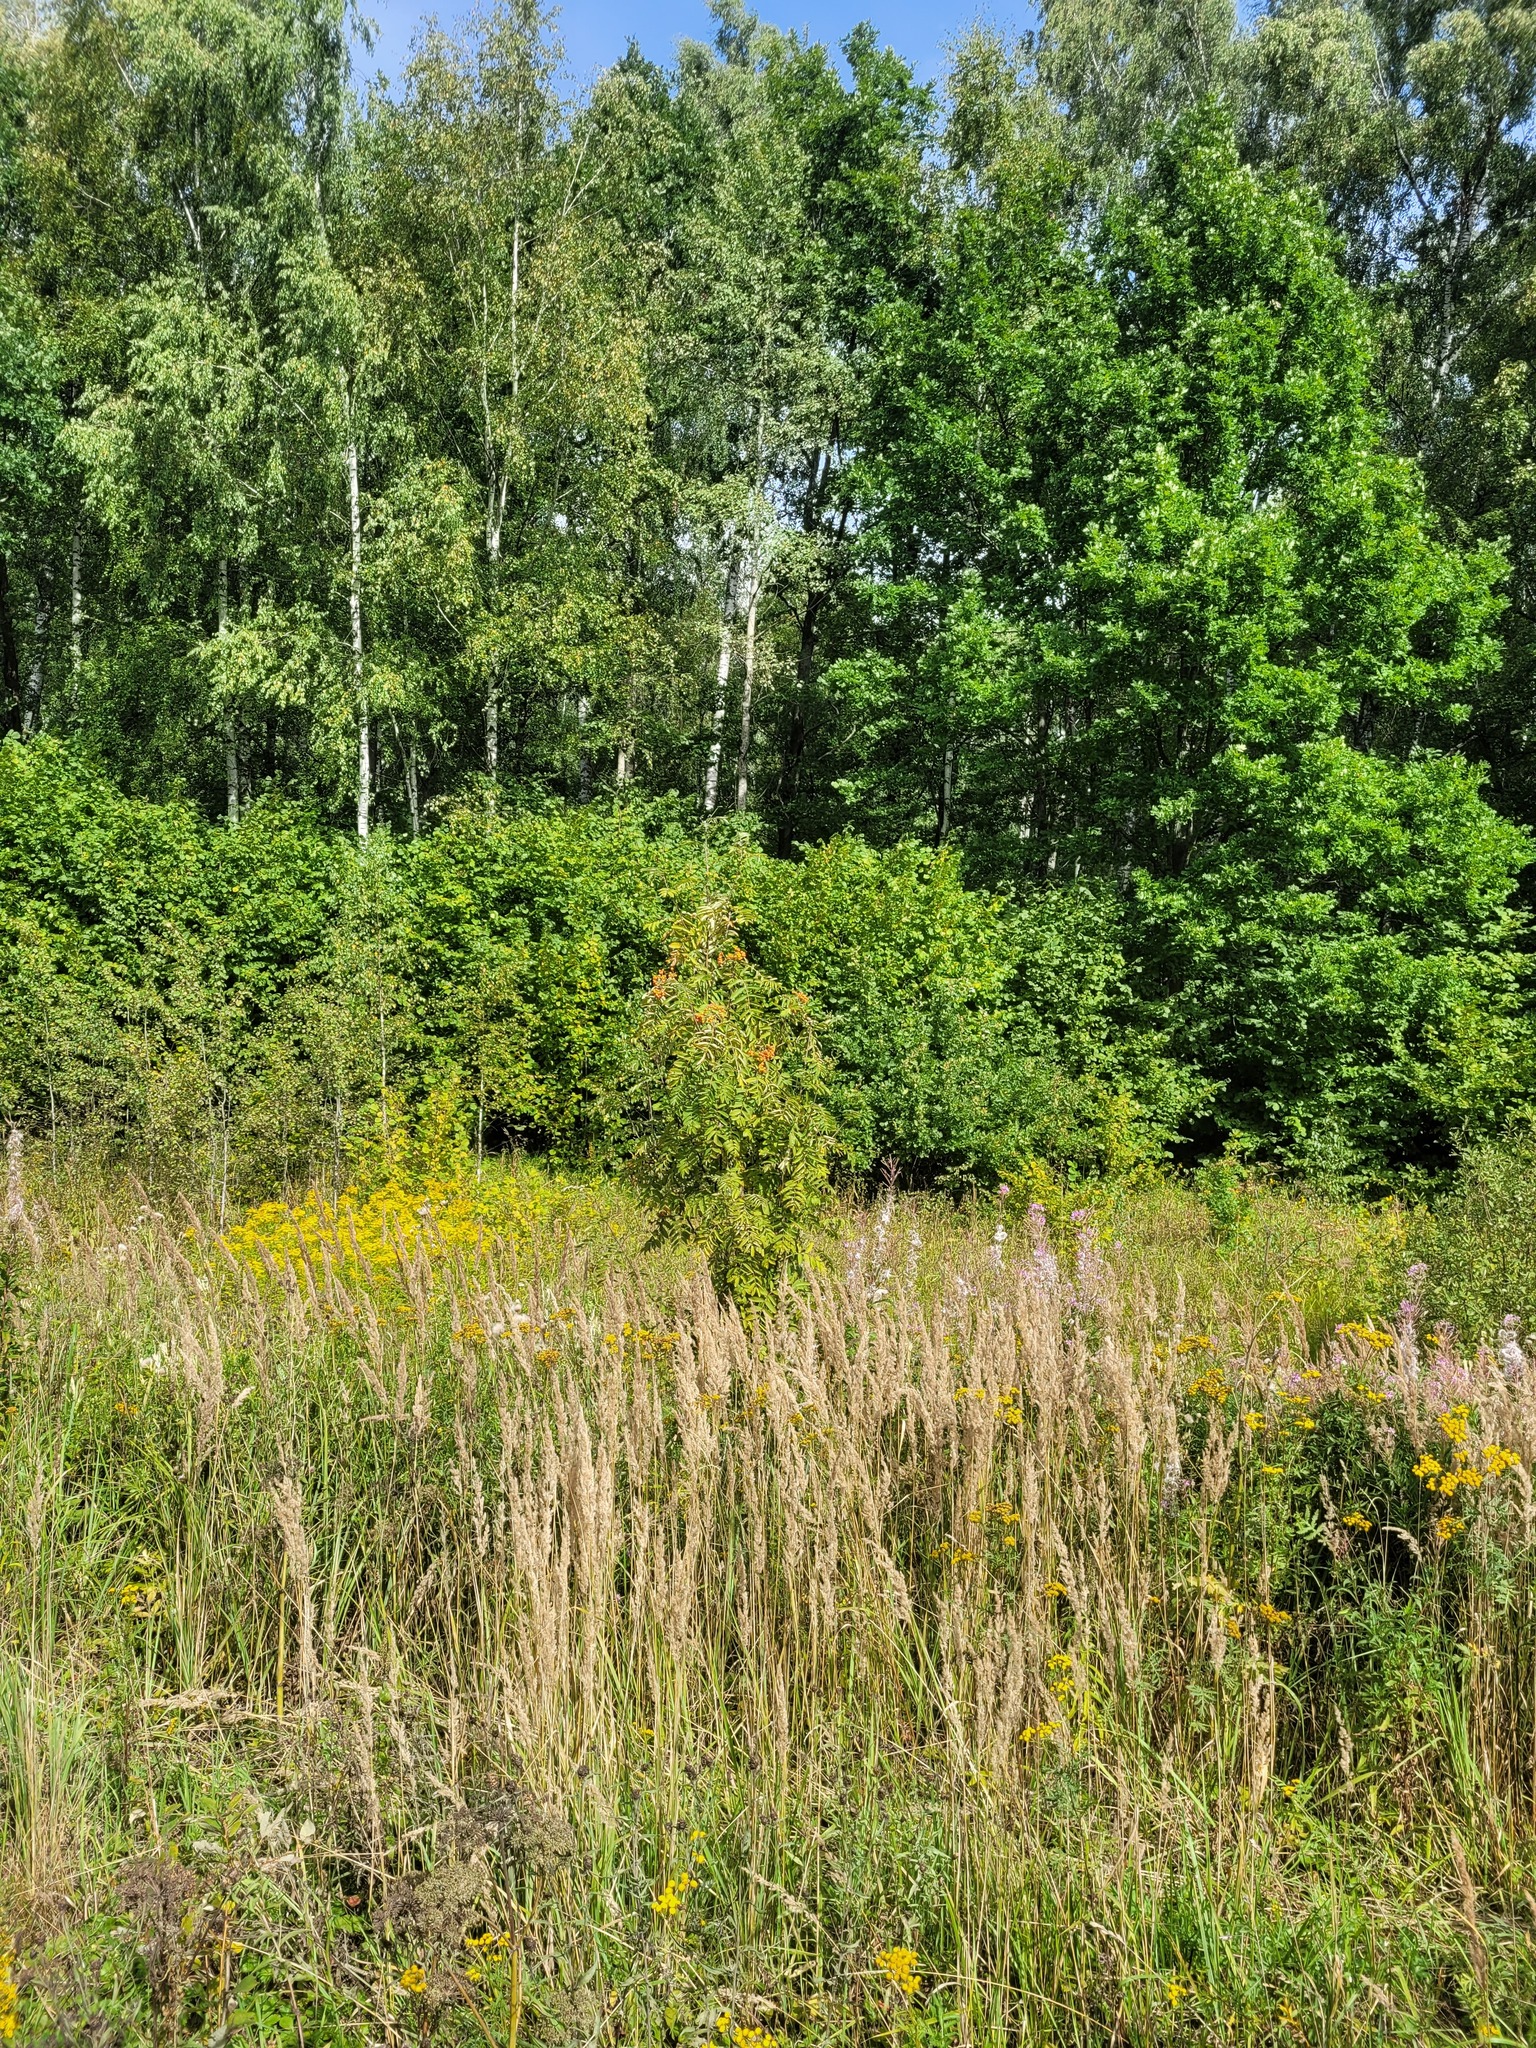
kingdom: Plantae
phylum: Tracheophyta
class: Magnoliopsida
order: Rosales
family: Rosaceae
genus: Sorbus
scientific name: Sorbus aucuparia
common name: Rowan
